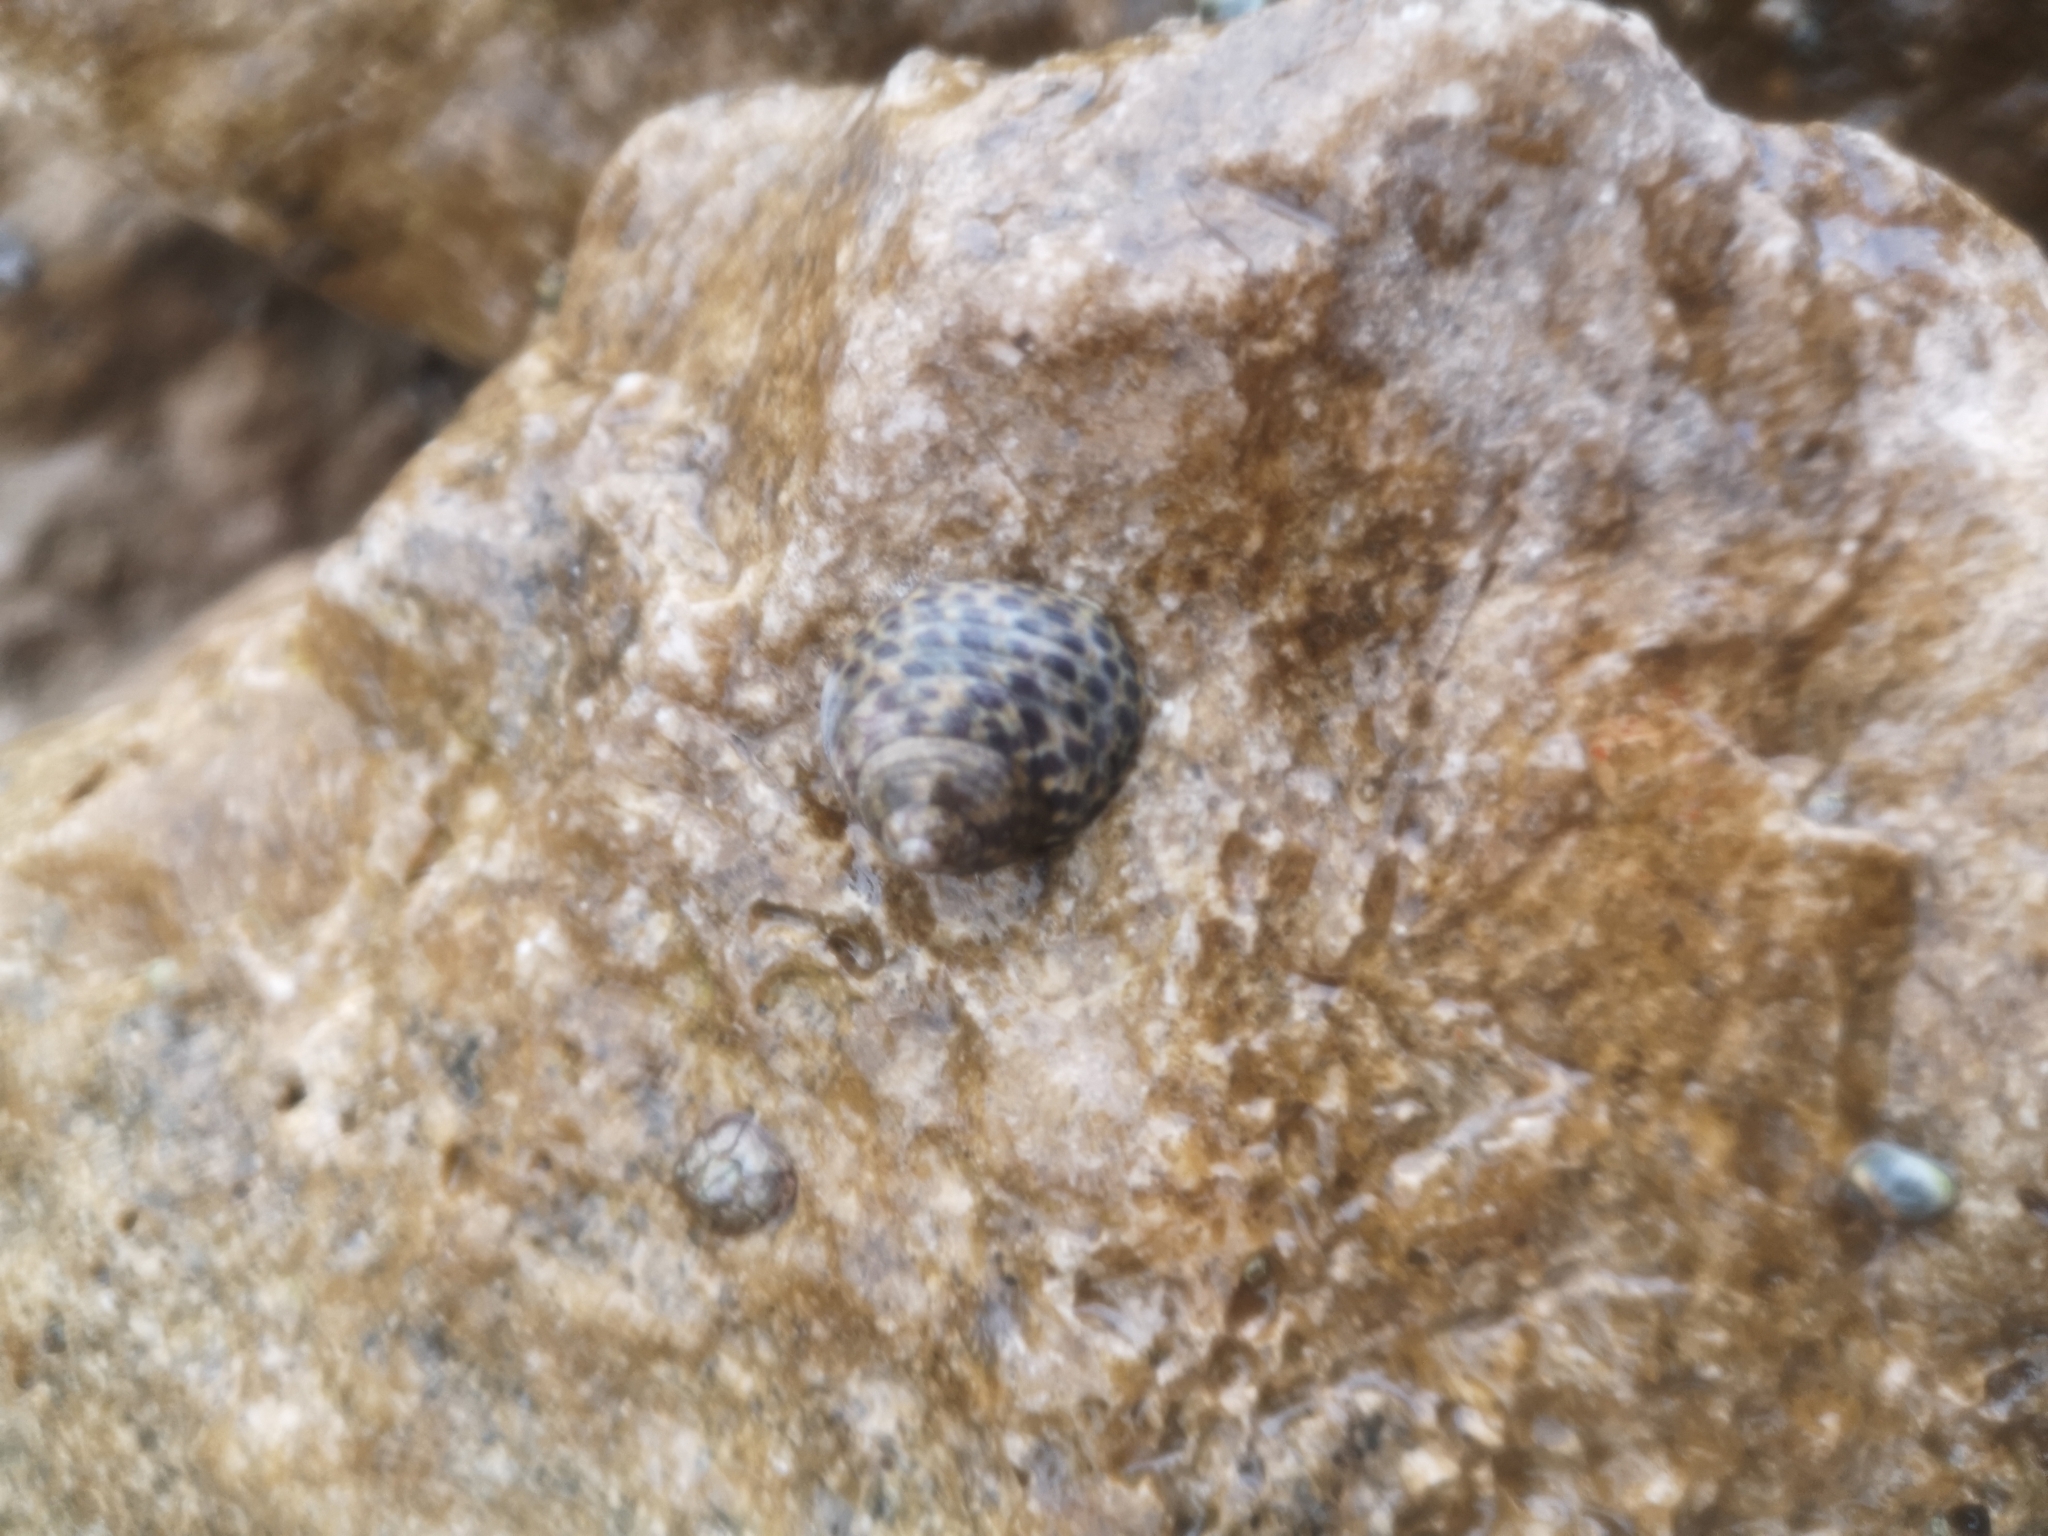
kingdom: Animalia
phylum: Mollusca
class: Gastropoda
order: Trochida
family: Trochidae
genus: Phorcus
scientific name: Phorcus turbinatus
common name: Turbinate monodont
